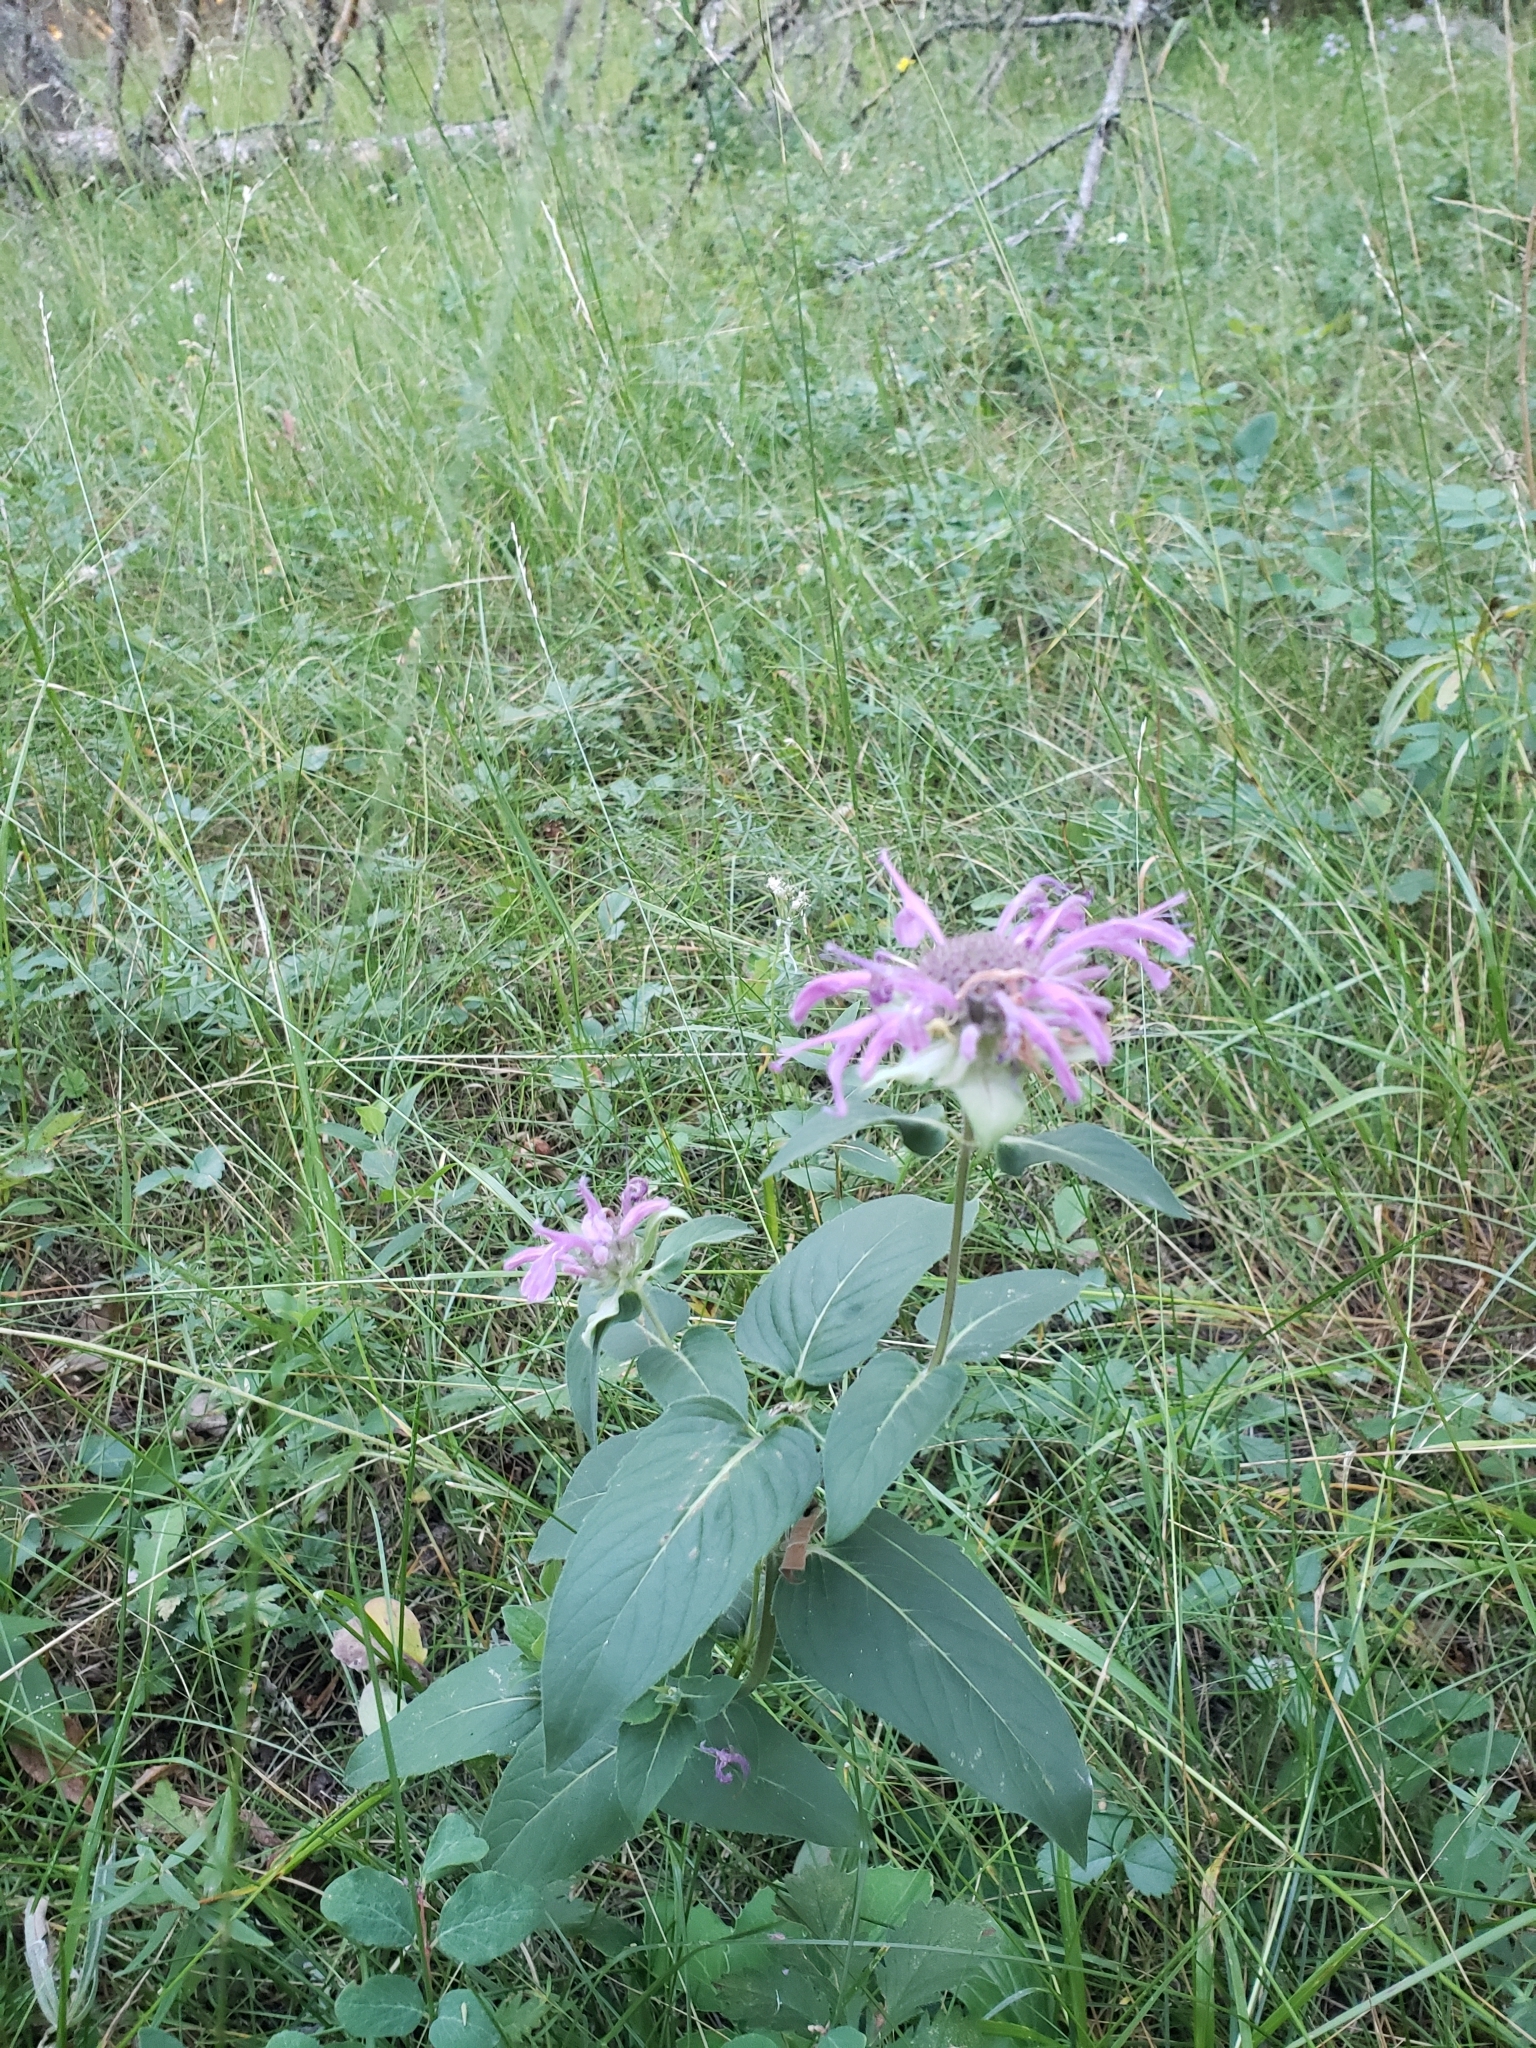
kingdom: Plantae
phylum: Tracheophyta
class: Magnoliopsida
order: Lamiales
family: Lamiaceae
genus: Monarda
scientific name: Monarda fistulosa
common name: Purple beebalm
